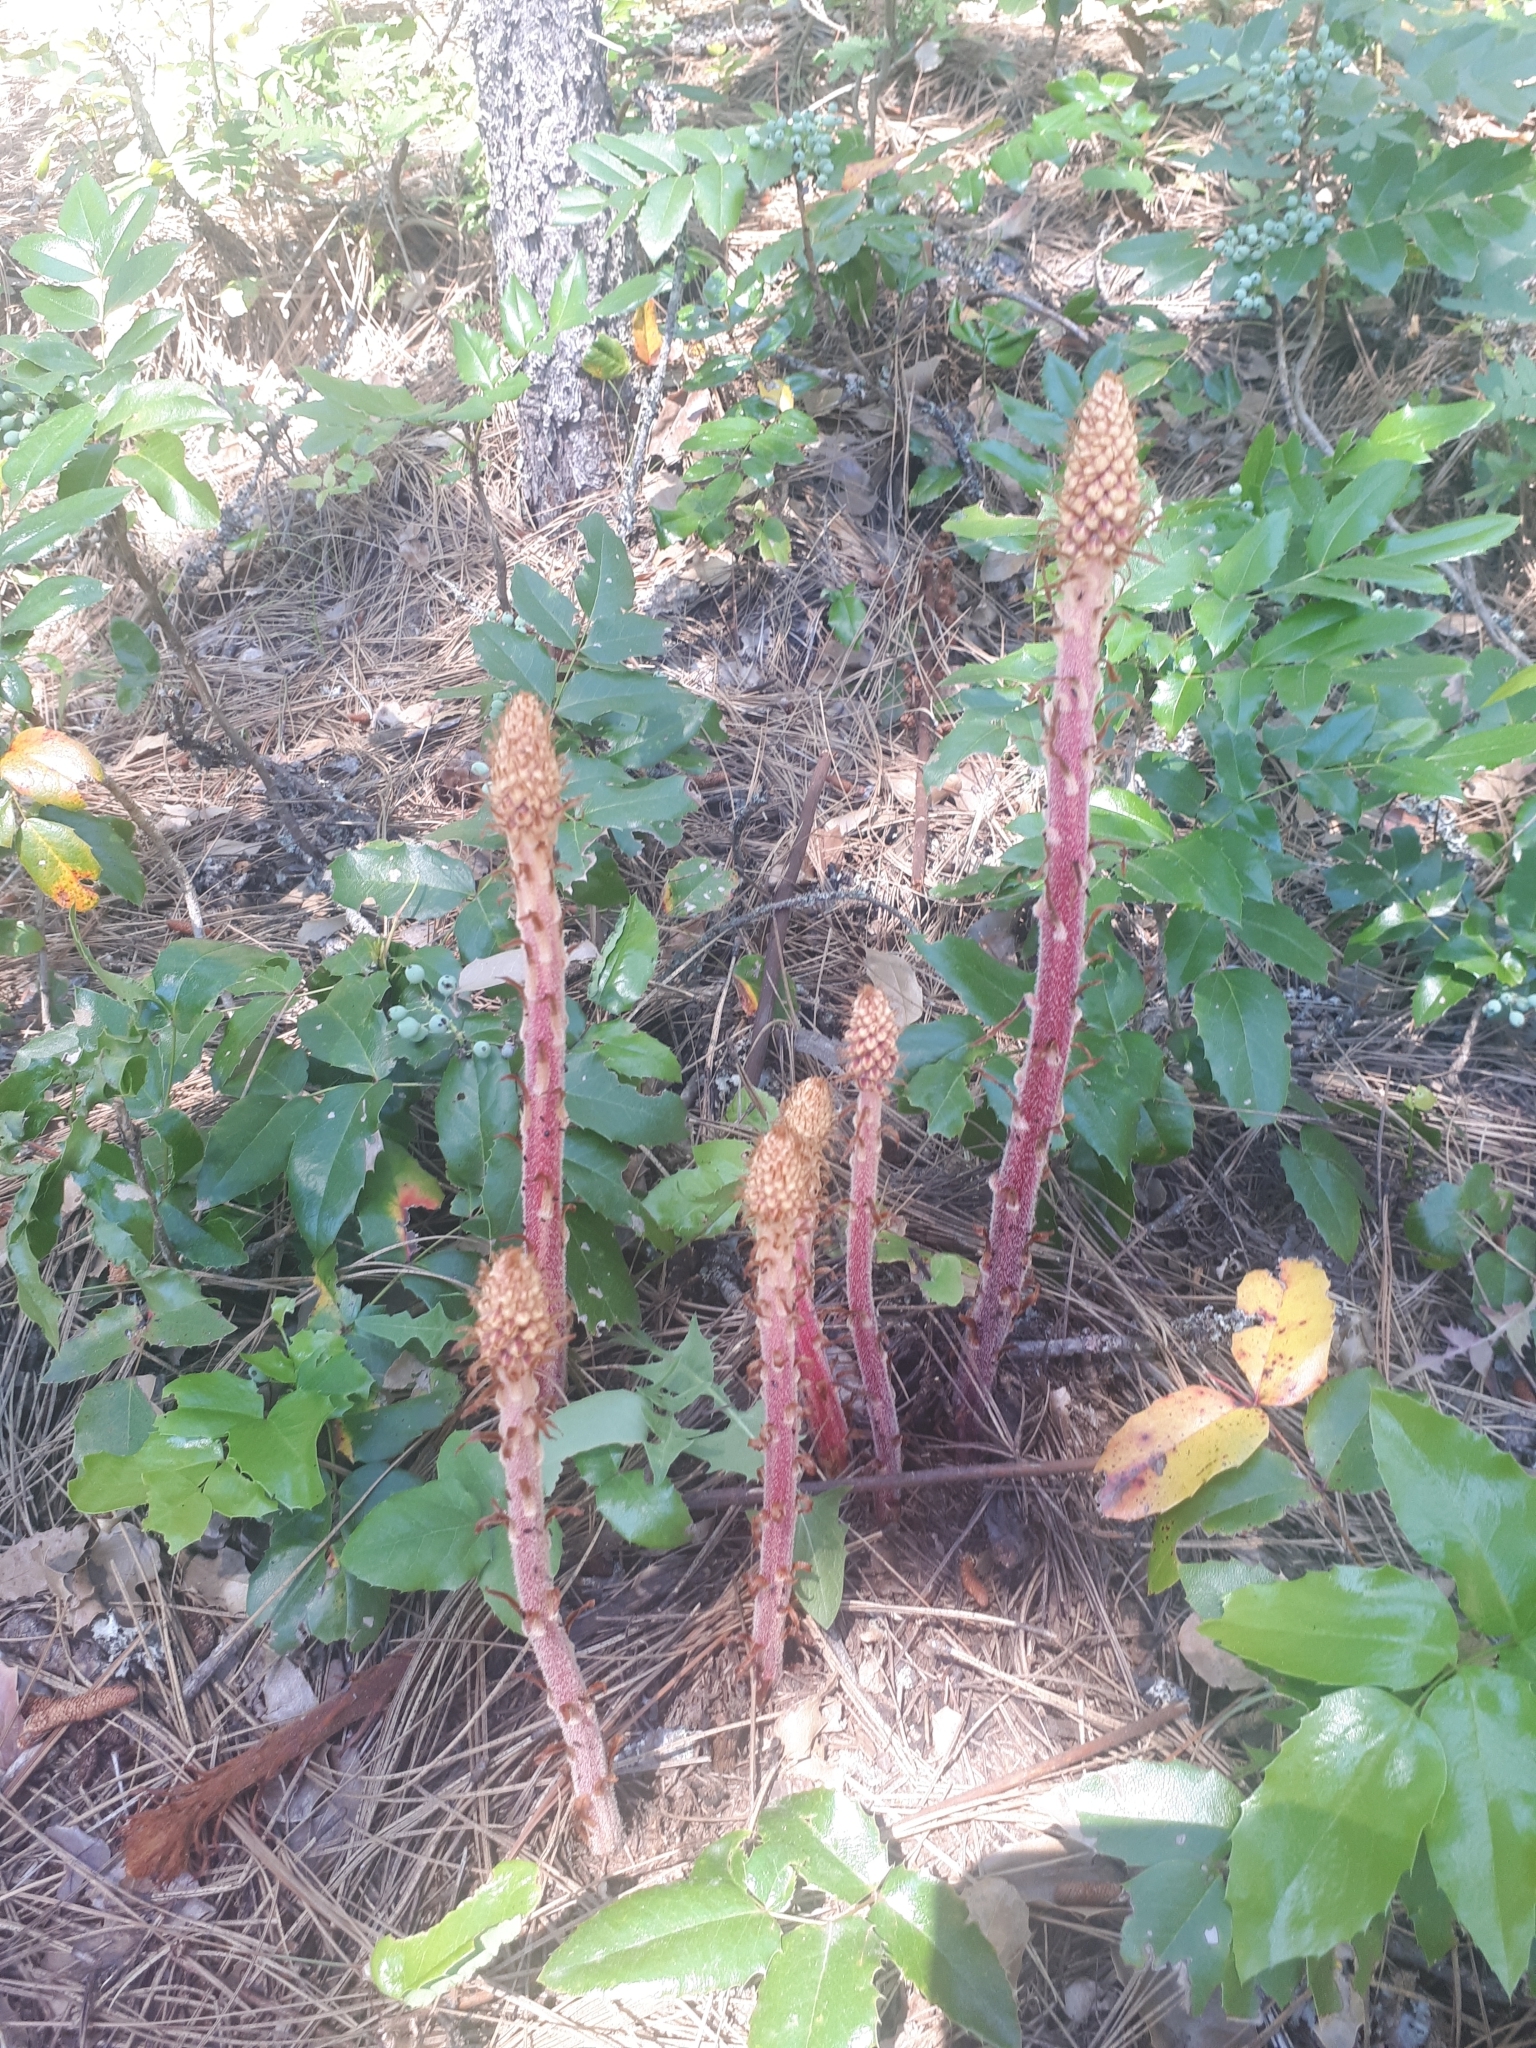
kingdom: Plantae
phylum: Tracheophyta
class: Magnoliopsida
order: Ericales
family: Ericaceae
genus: Pterospora
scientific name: Pterospora andromedea
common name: Giant bird's-nest
